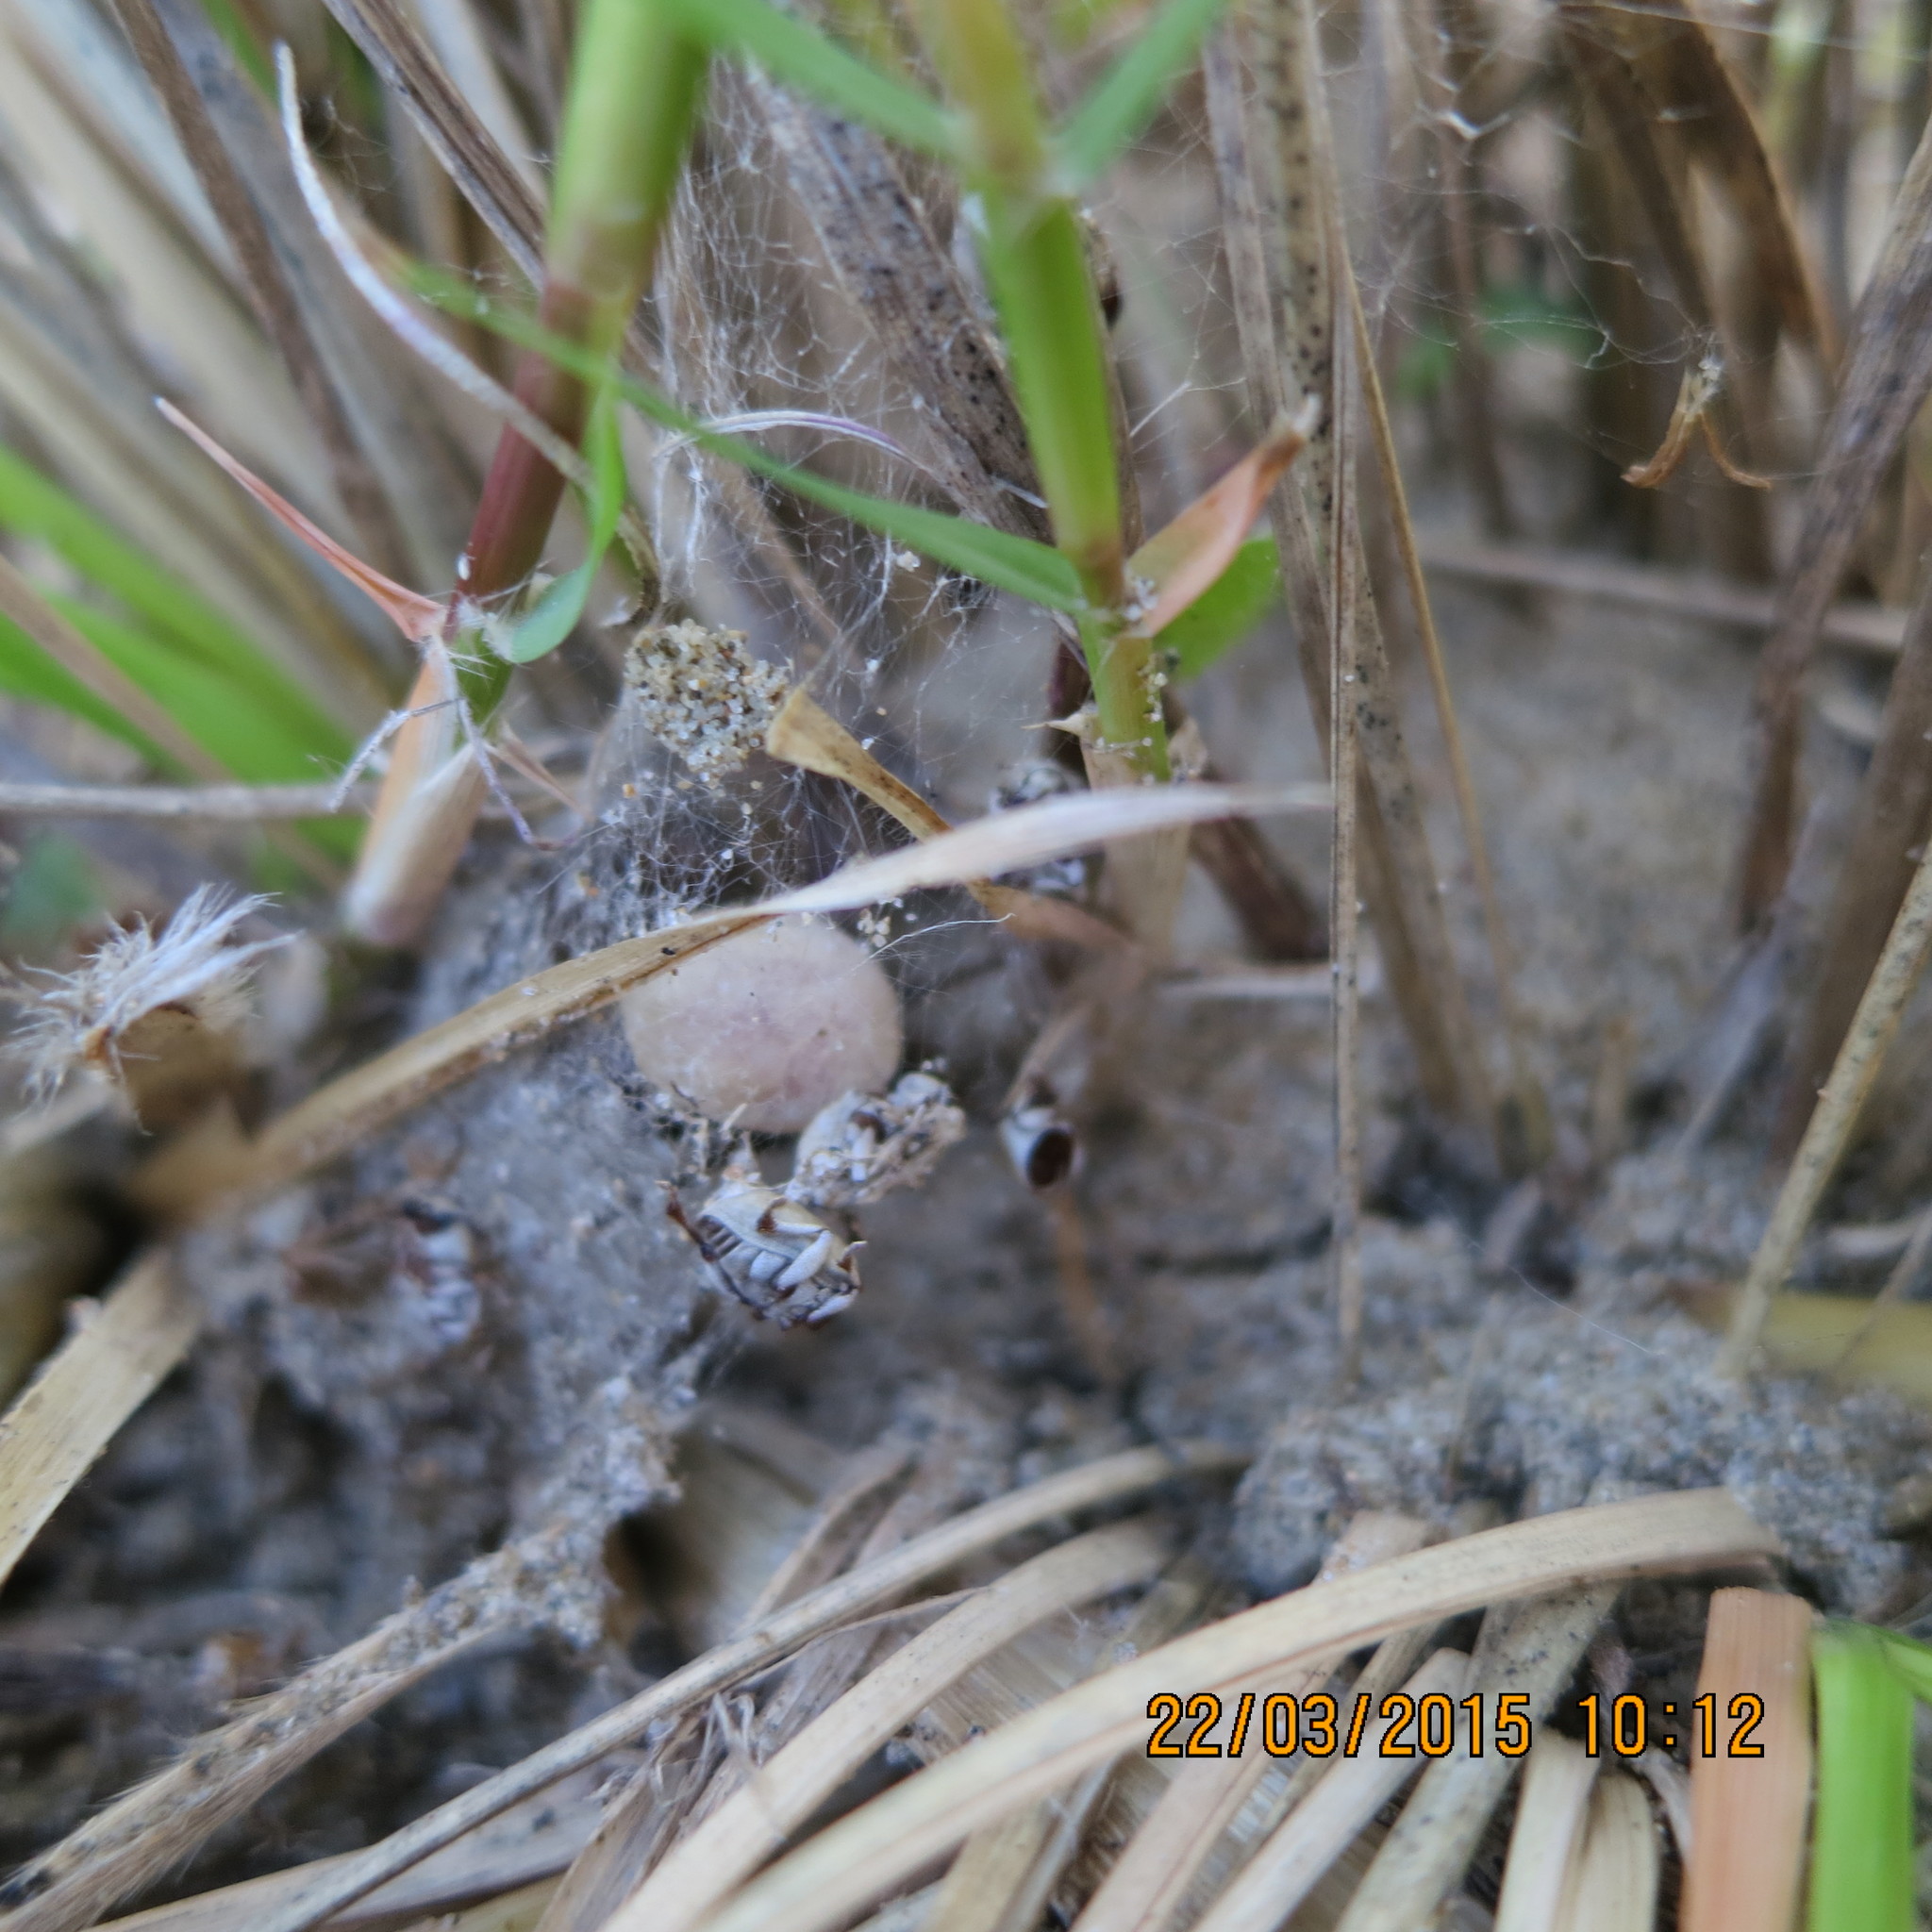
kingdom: Animalia
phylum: Arthropoda
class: Arachnida
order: Araneae
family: Theridiidae
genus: Latrodectus
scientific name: Latrodectus katipo
